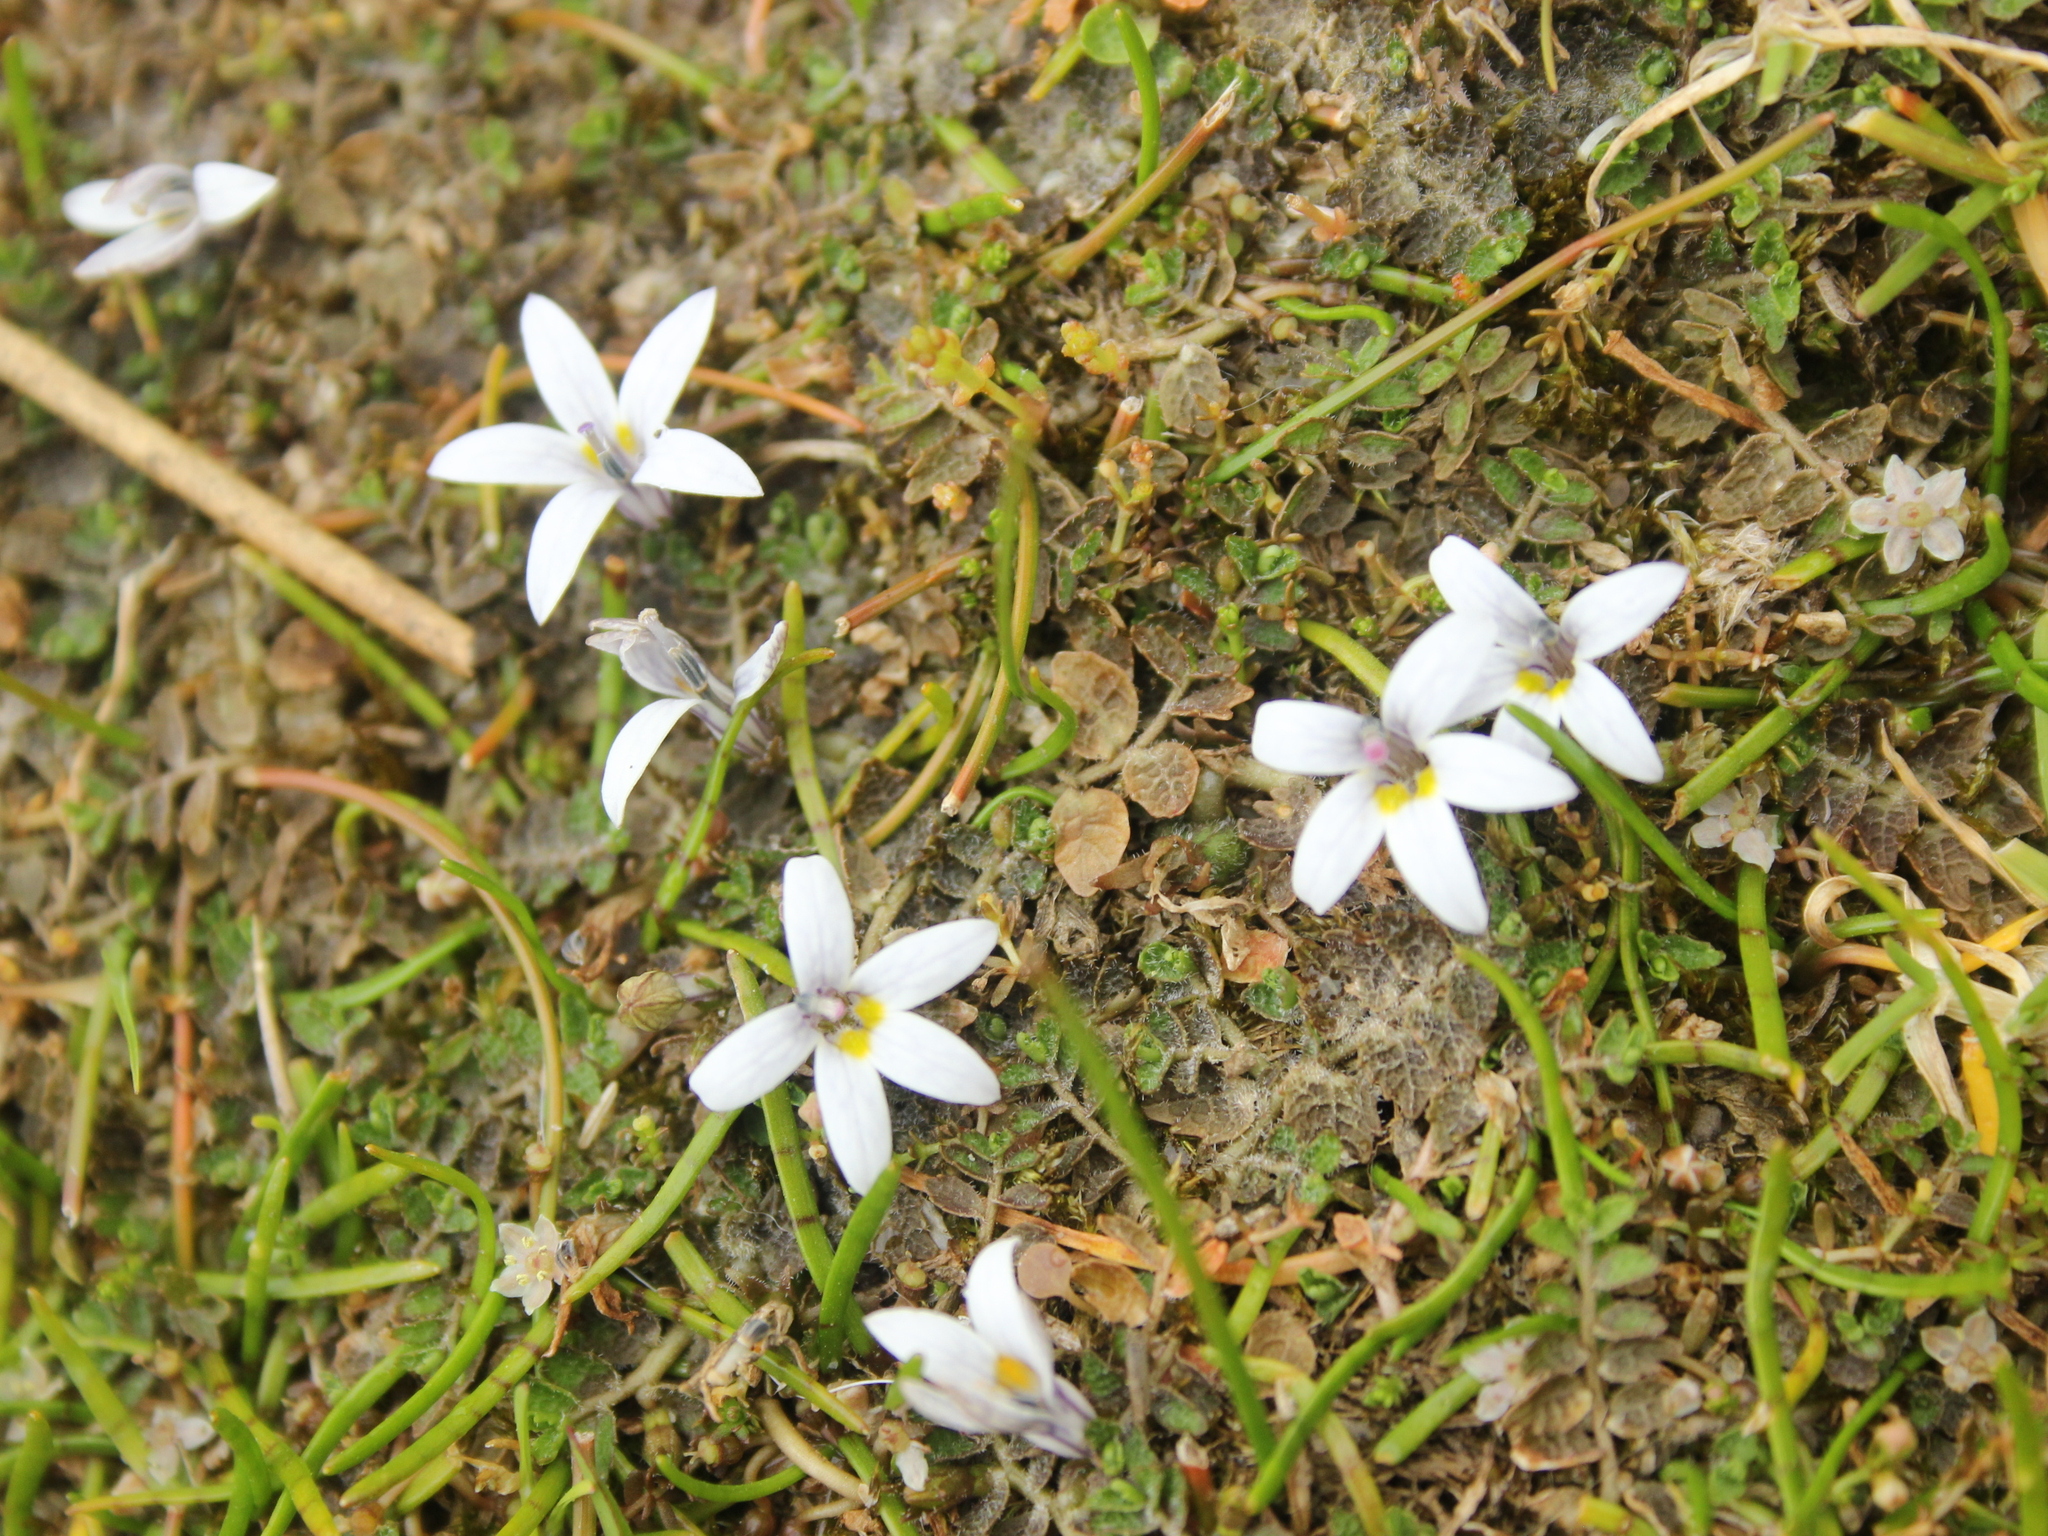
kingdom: Plantae
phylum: Tracheophyta
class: Magnoliopsida
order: Asterales
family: Campanulaceae
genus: Lobelia
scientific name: Lobelia perpusilla
